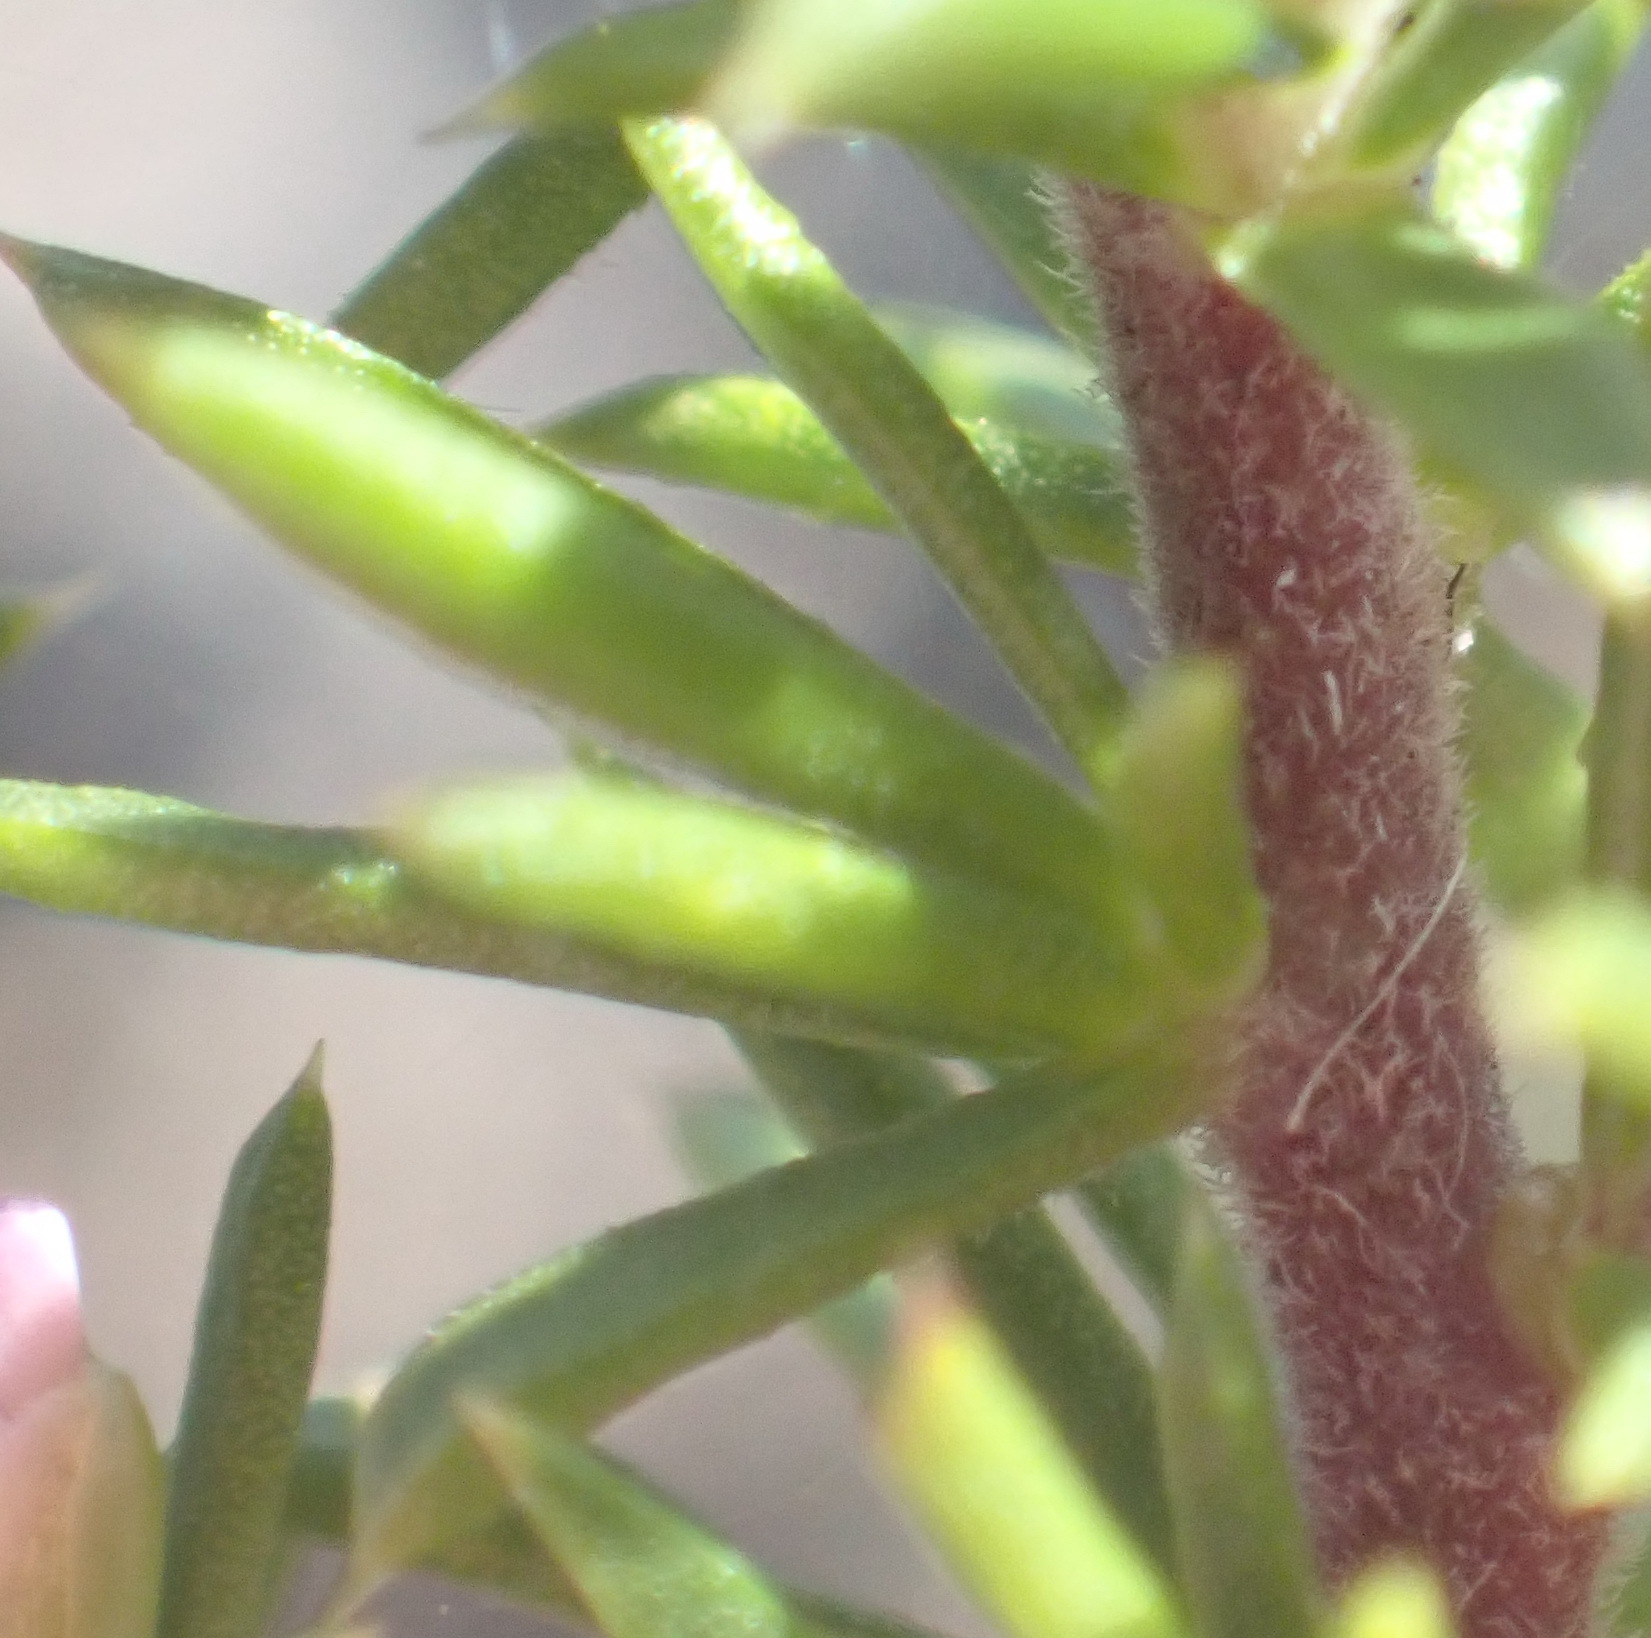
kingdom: Plantae
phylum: Tracheophyta
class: Magnoliopsida
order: Fabales
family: Polygalaceae
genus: Muraltia
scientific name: Muraltia ericifolia
